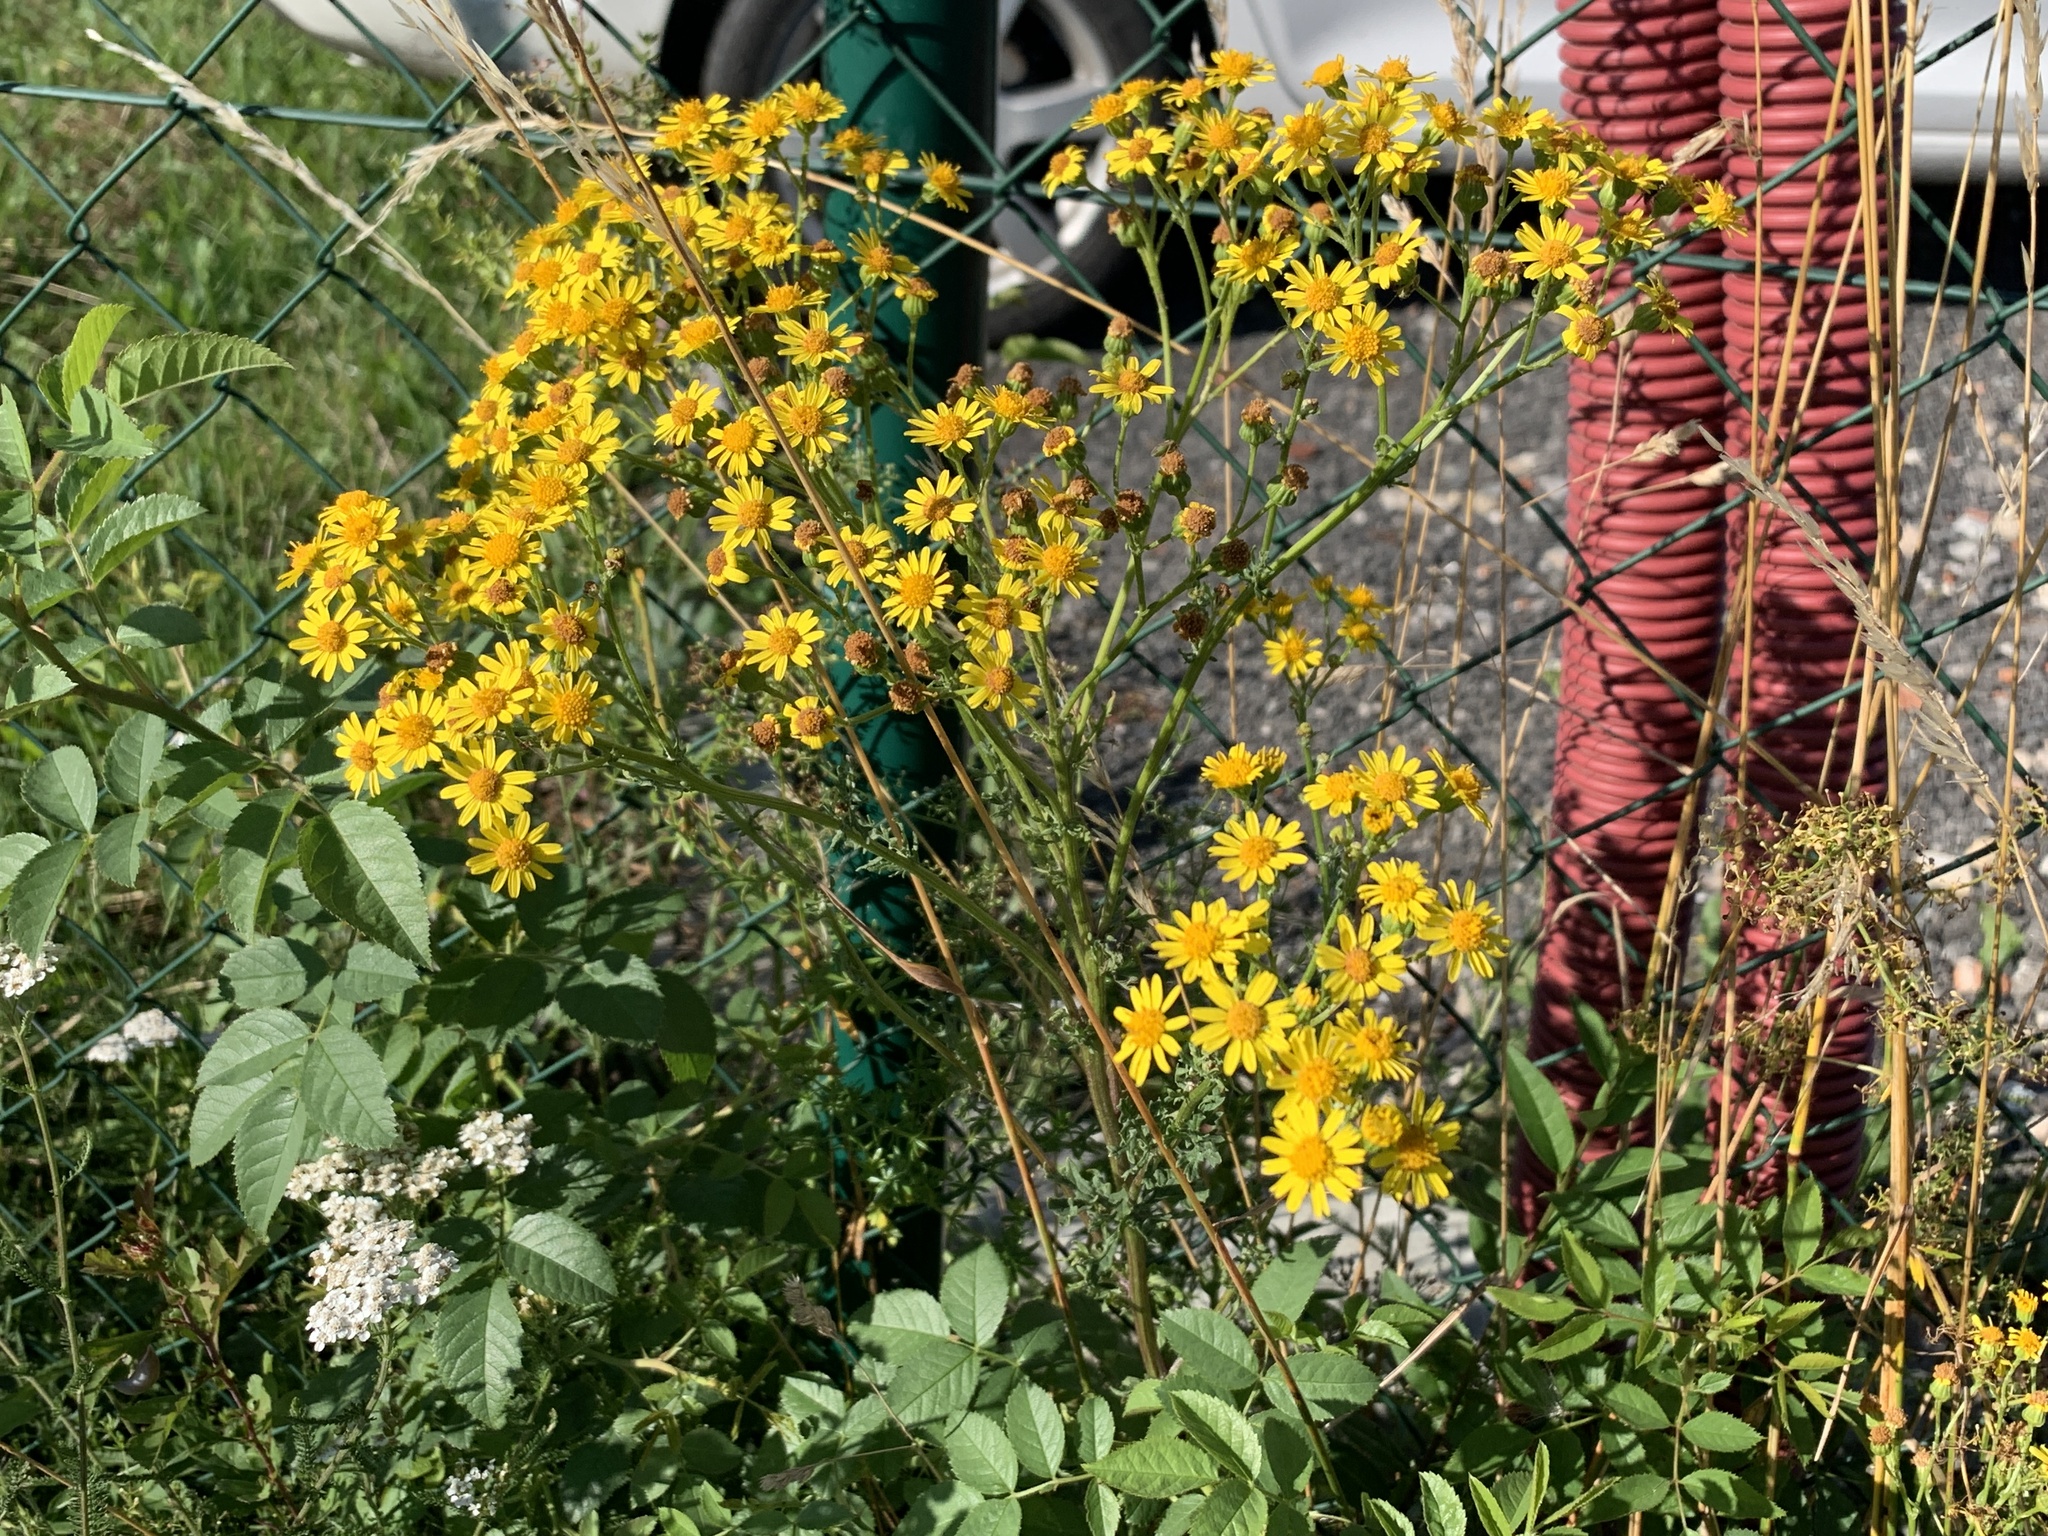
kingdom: Plantae
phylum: Tracheophyta
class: Magnoliopsida
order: Asterales
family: Asteraceae
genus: Jacobaea
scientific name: Jacobaea vulgaris
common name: Stinking willie
